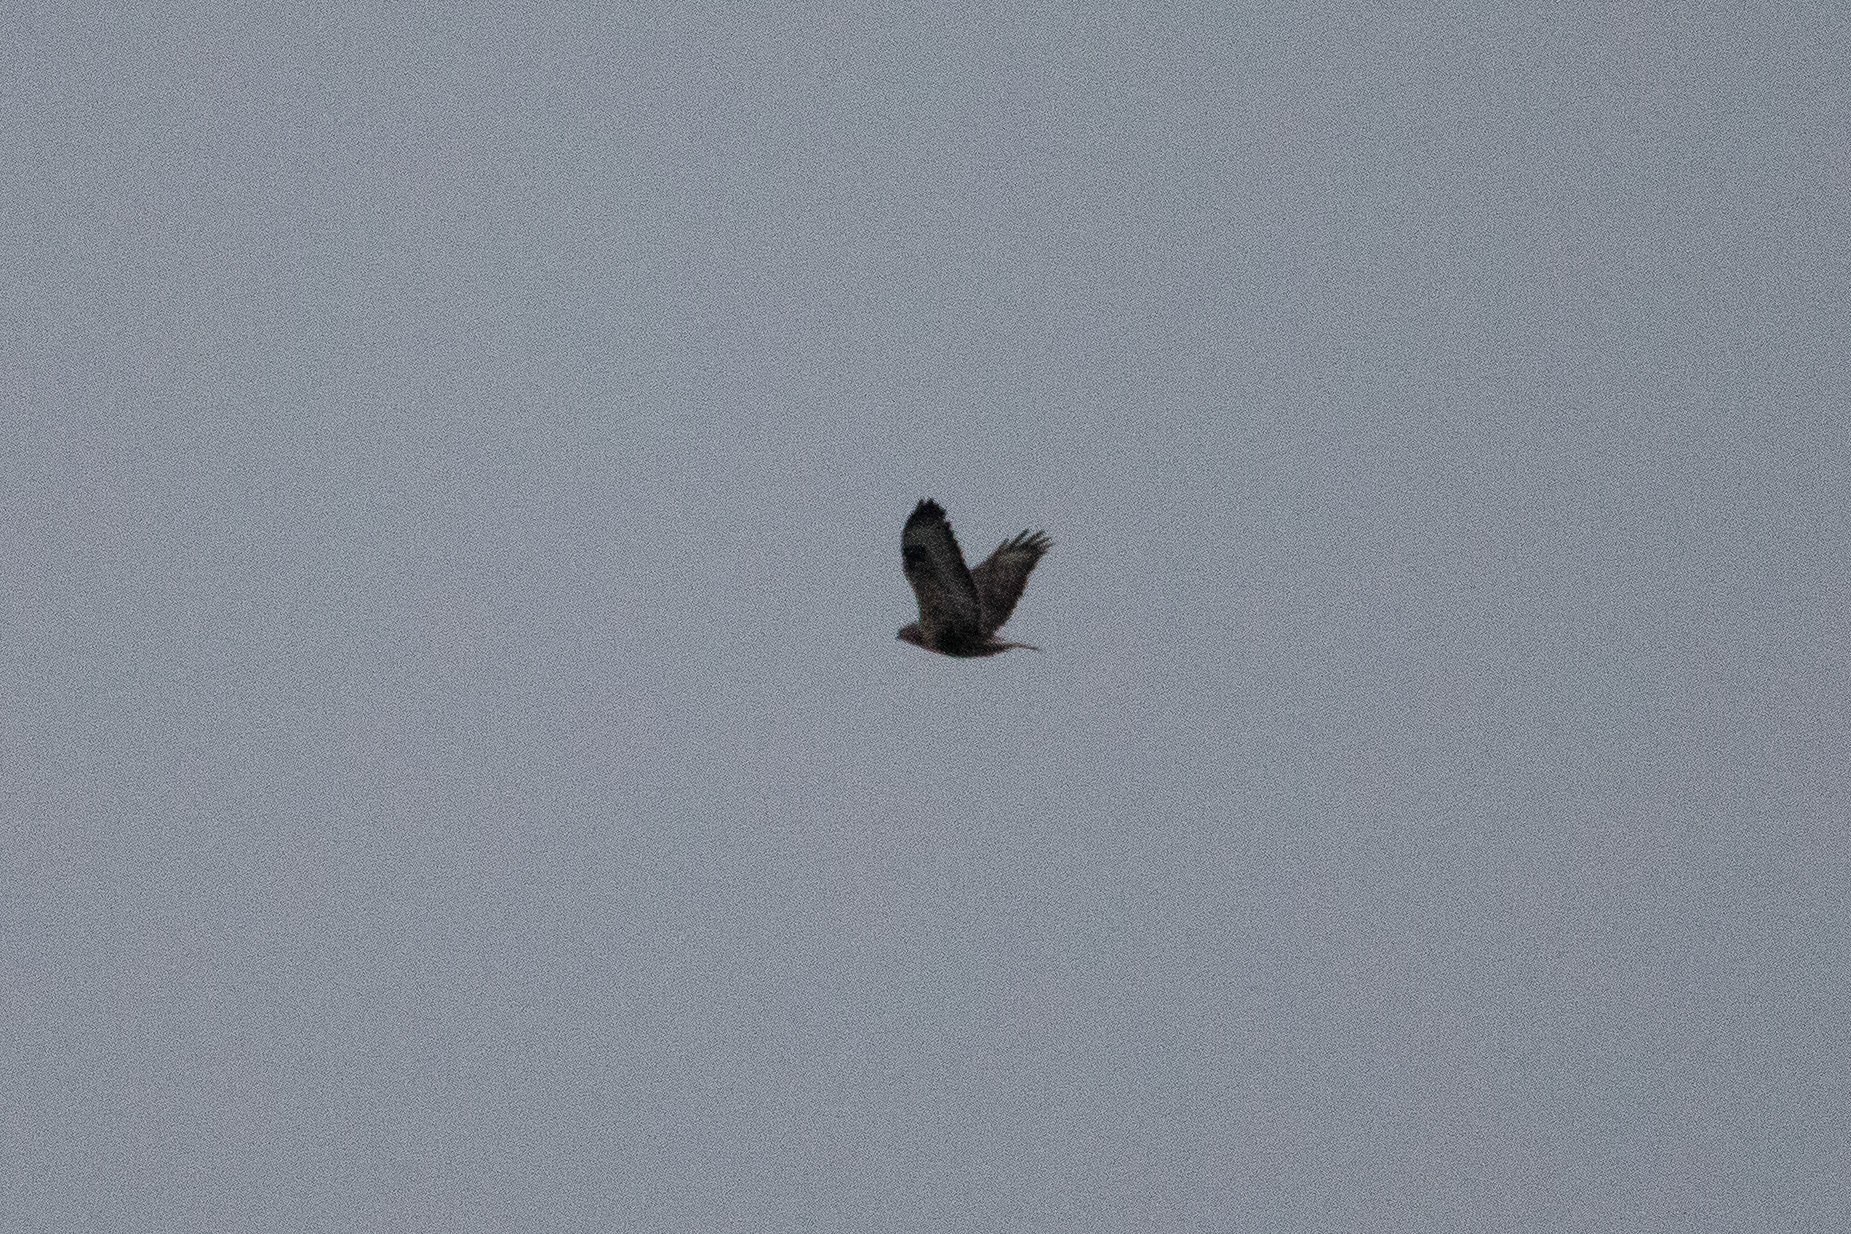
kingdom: Animalia
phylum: Chordata
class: Aves
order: Accipitriformes
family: Accipitridae
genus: Buteo
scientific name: Buteo lagopus
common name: Rough-legged buzzard
